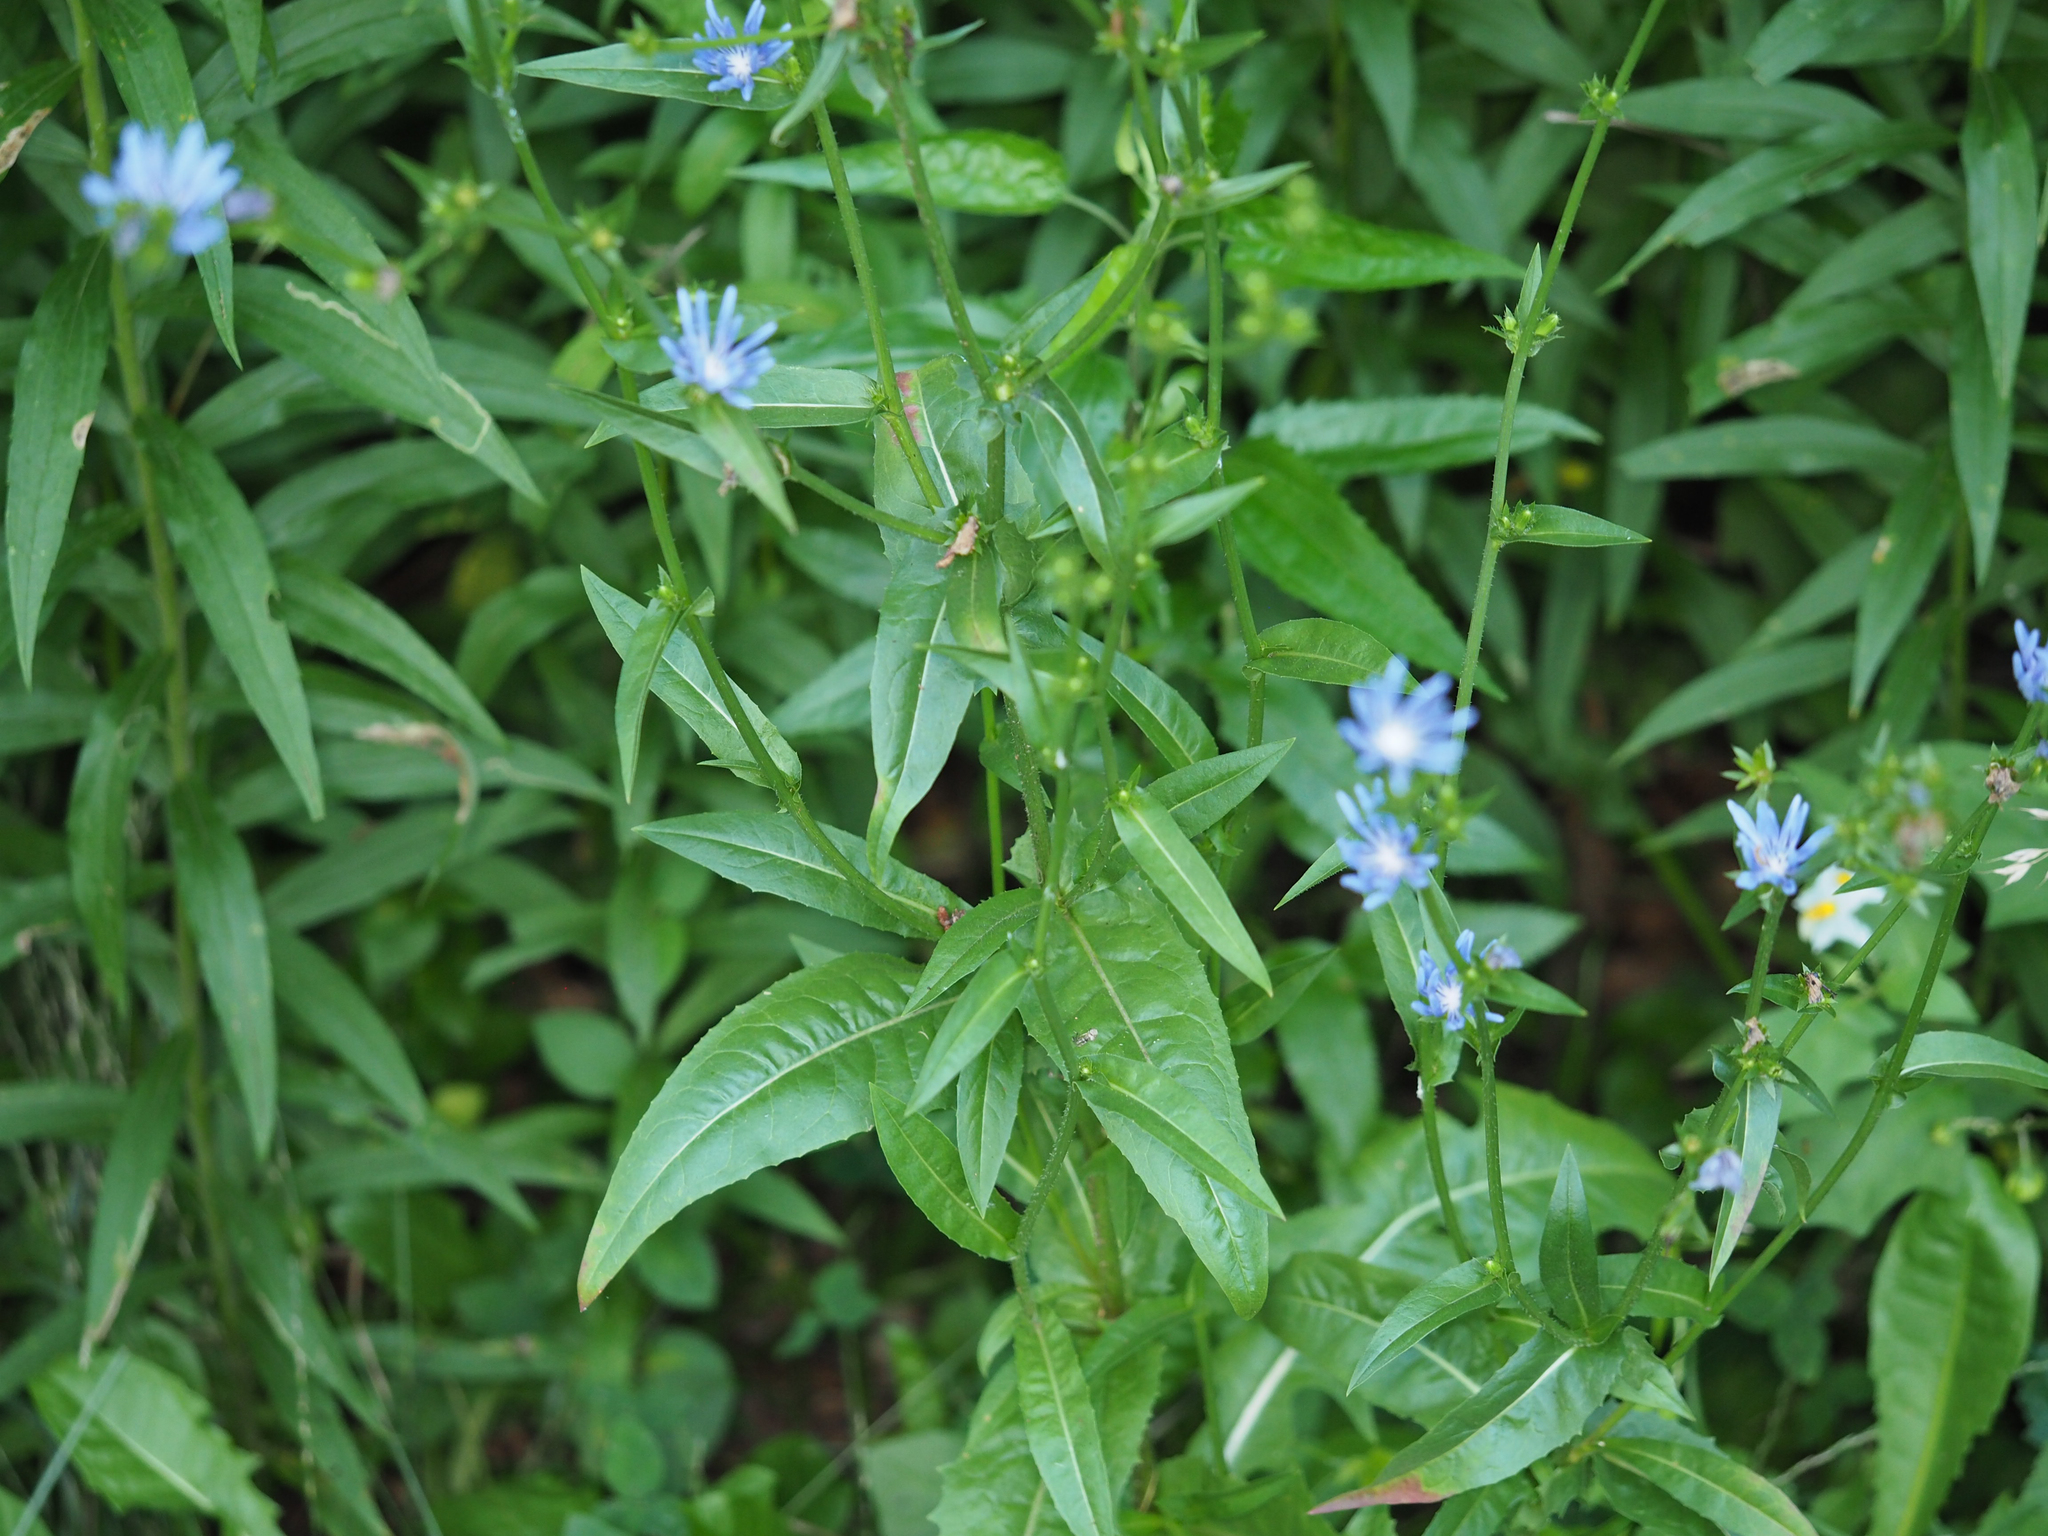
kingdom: Plantae
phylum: Tracheophyta
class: Magnoliopsida
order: Asterales
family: Asteraceae
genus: Cichorium
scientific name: Cichorium intybus
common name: Chicory
